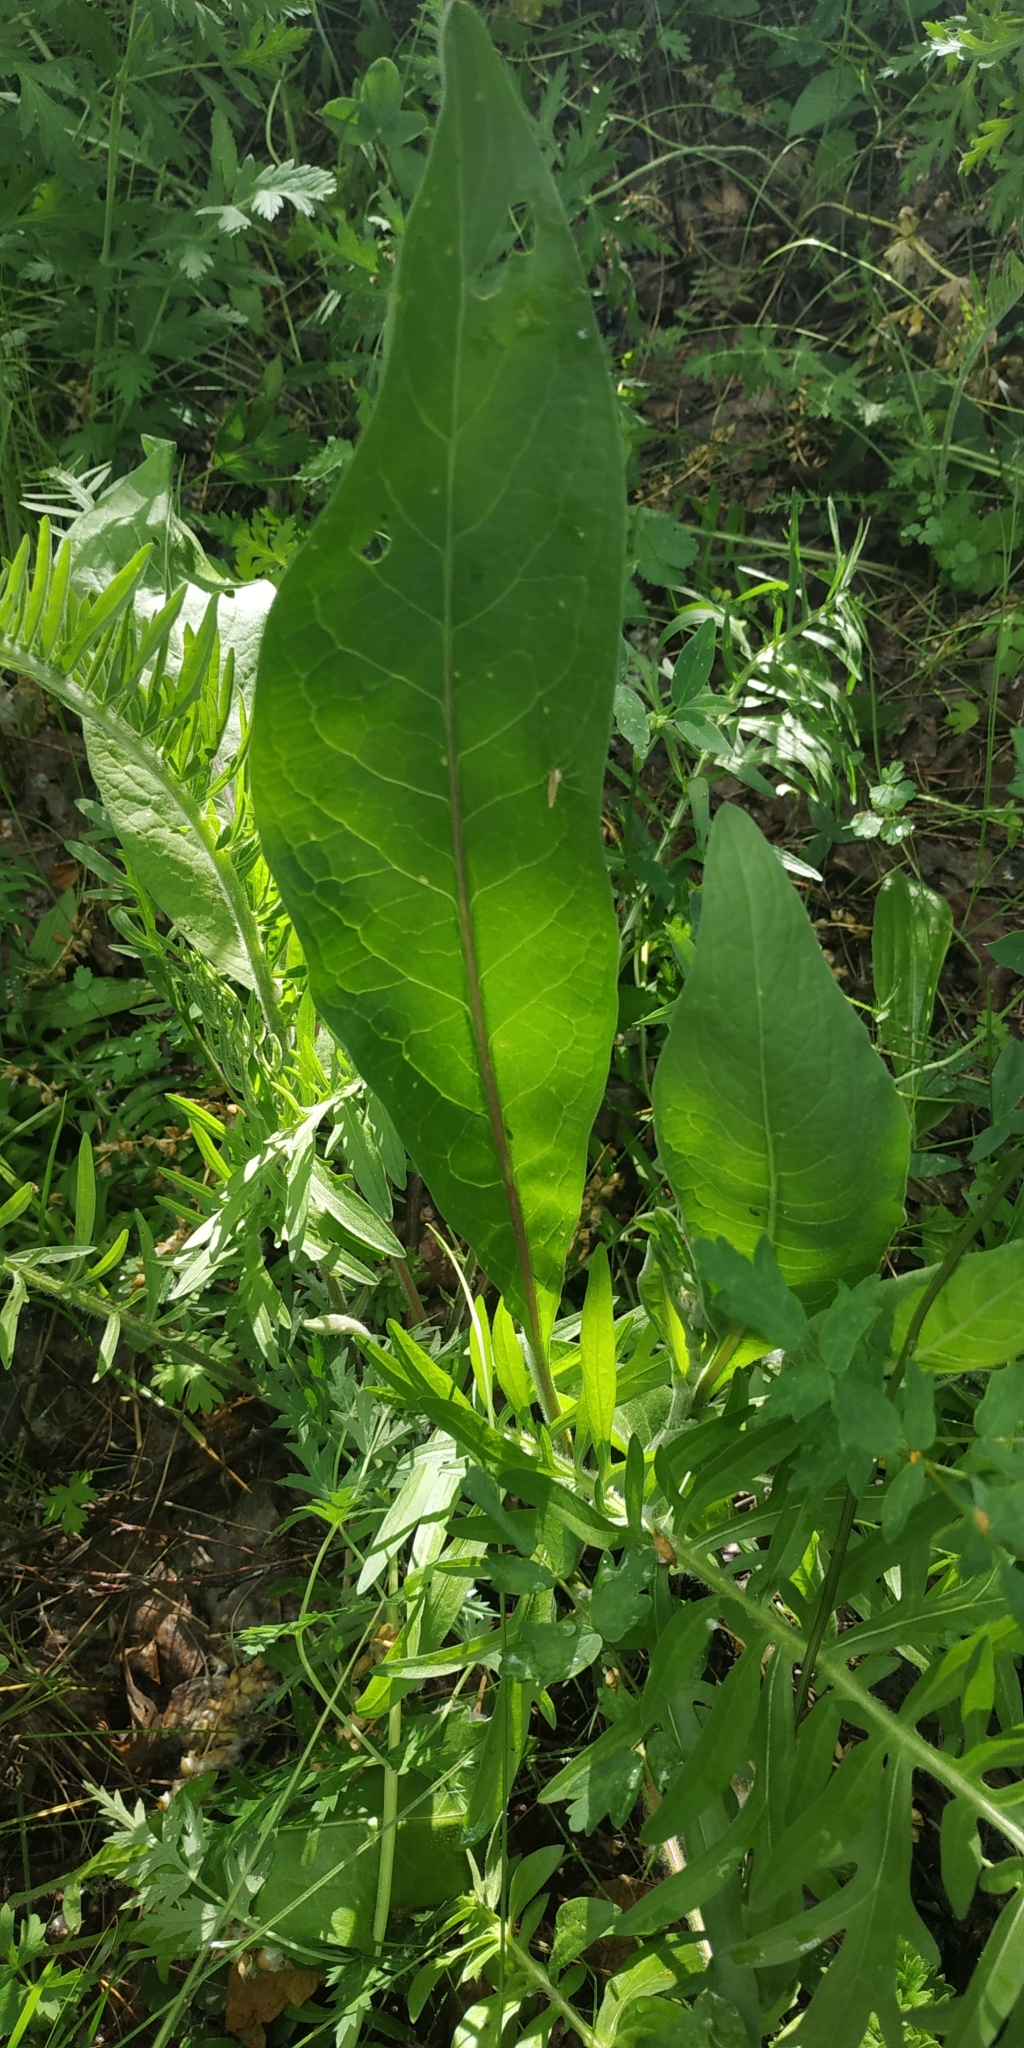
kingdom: Plantae
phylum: Tracheophyta
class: Magnoliopsida
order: Asterales
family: Asteraceae
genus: Cirsium
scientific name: Cirsium heterophyllum
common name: Melancholy thistle
